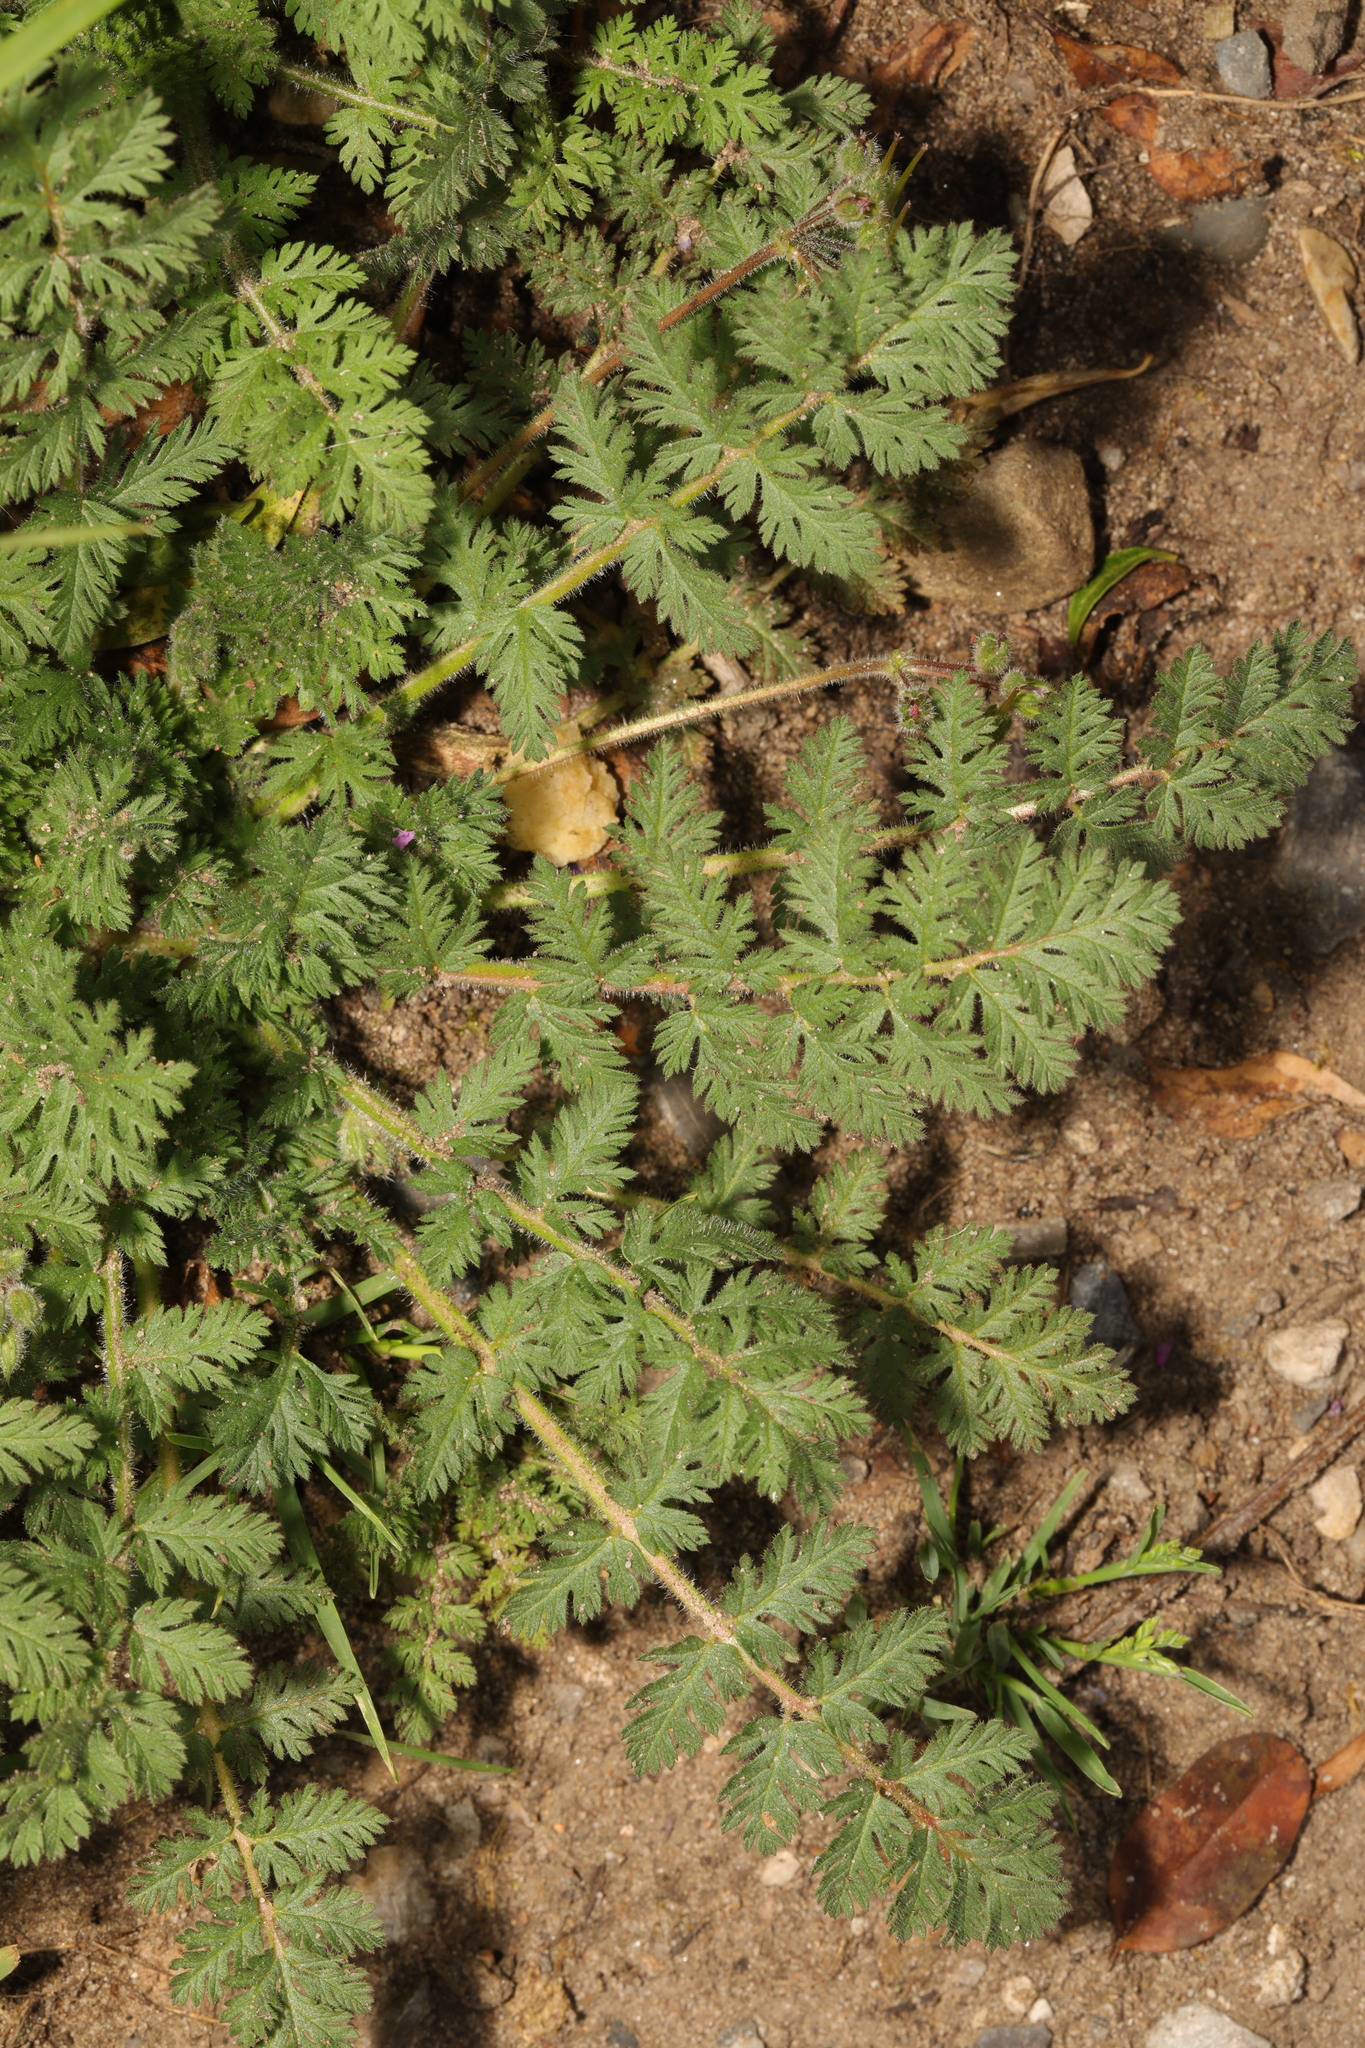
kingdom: Plantae
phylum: Tracheophyta
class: Magnoliopsida
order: Geraniales
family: Geraniaceae
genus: Erodium
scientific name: Erodium cicutarium
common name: Common stork's-bill
